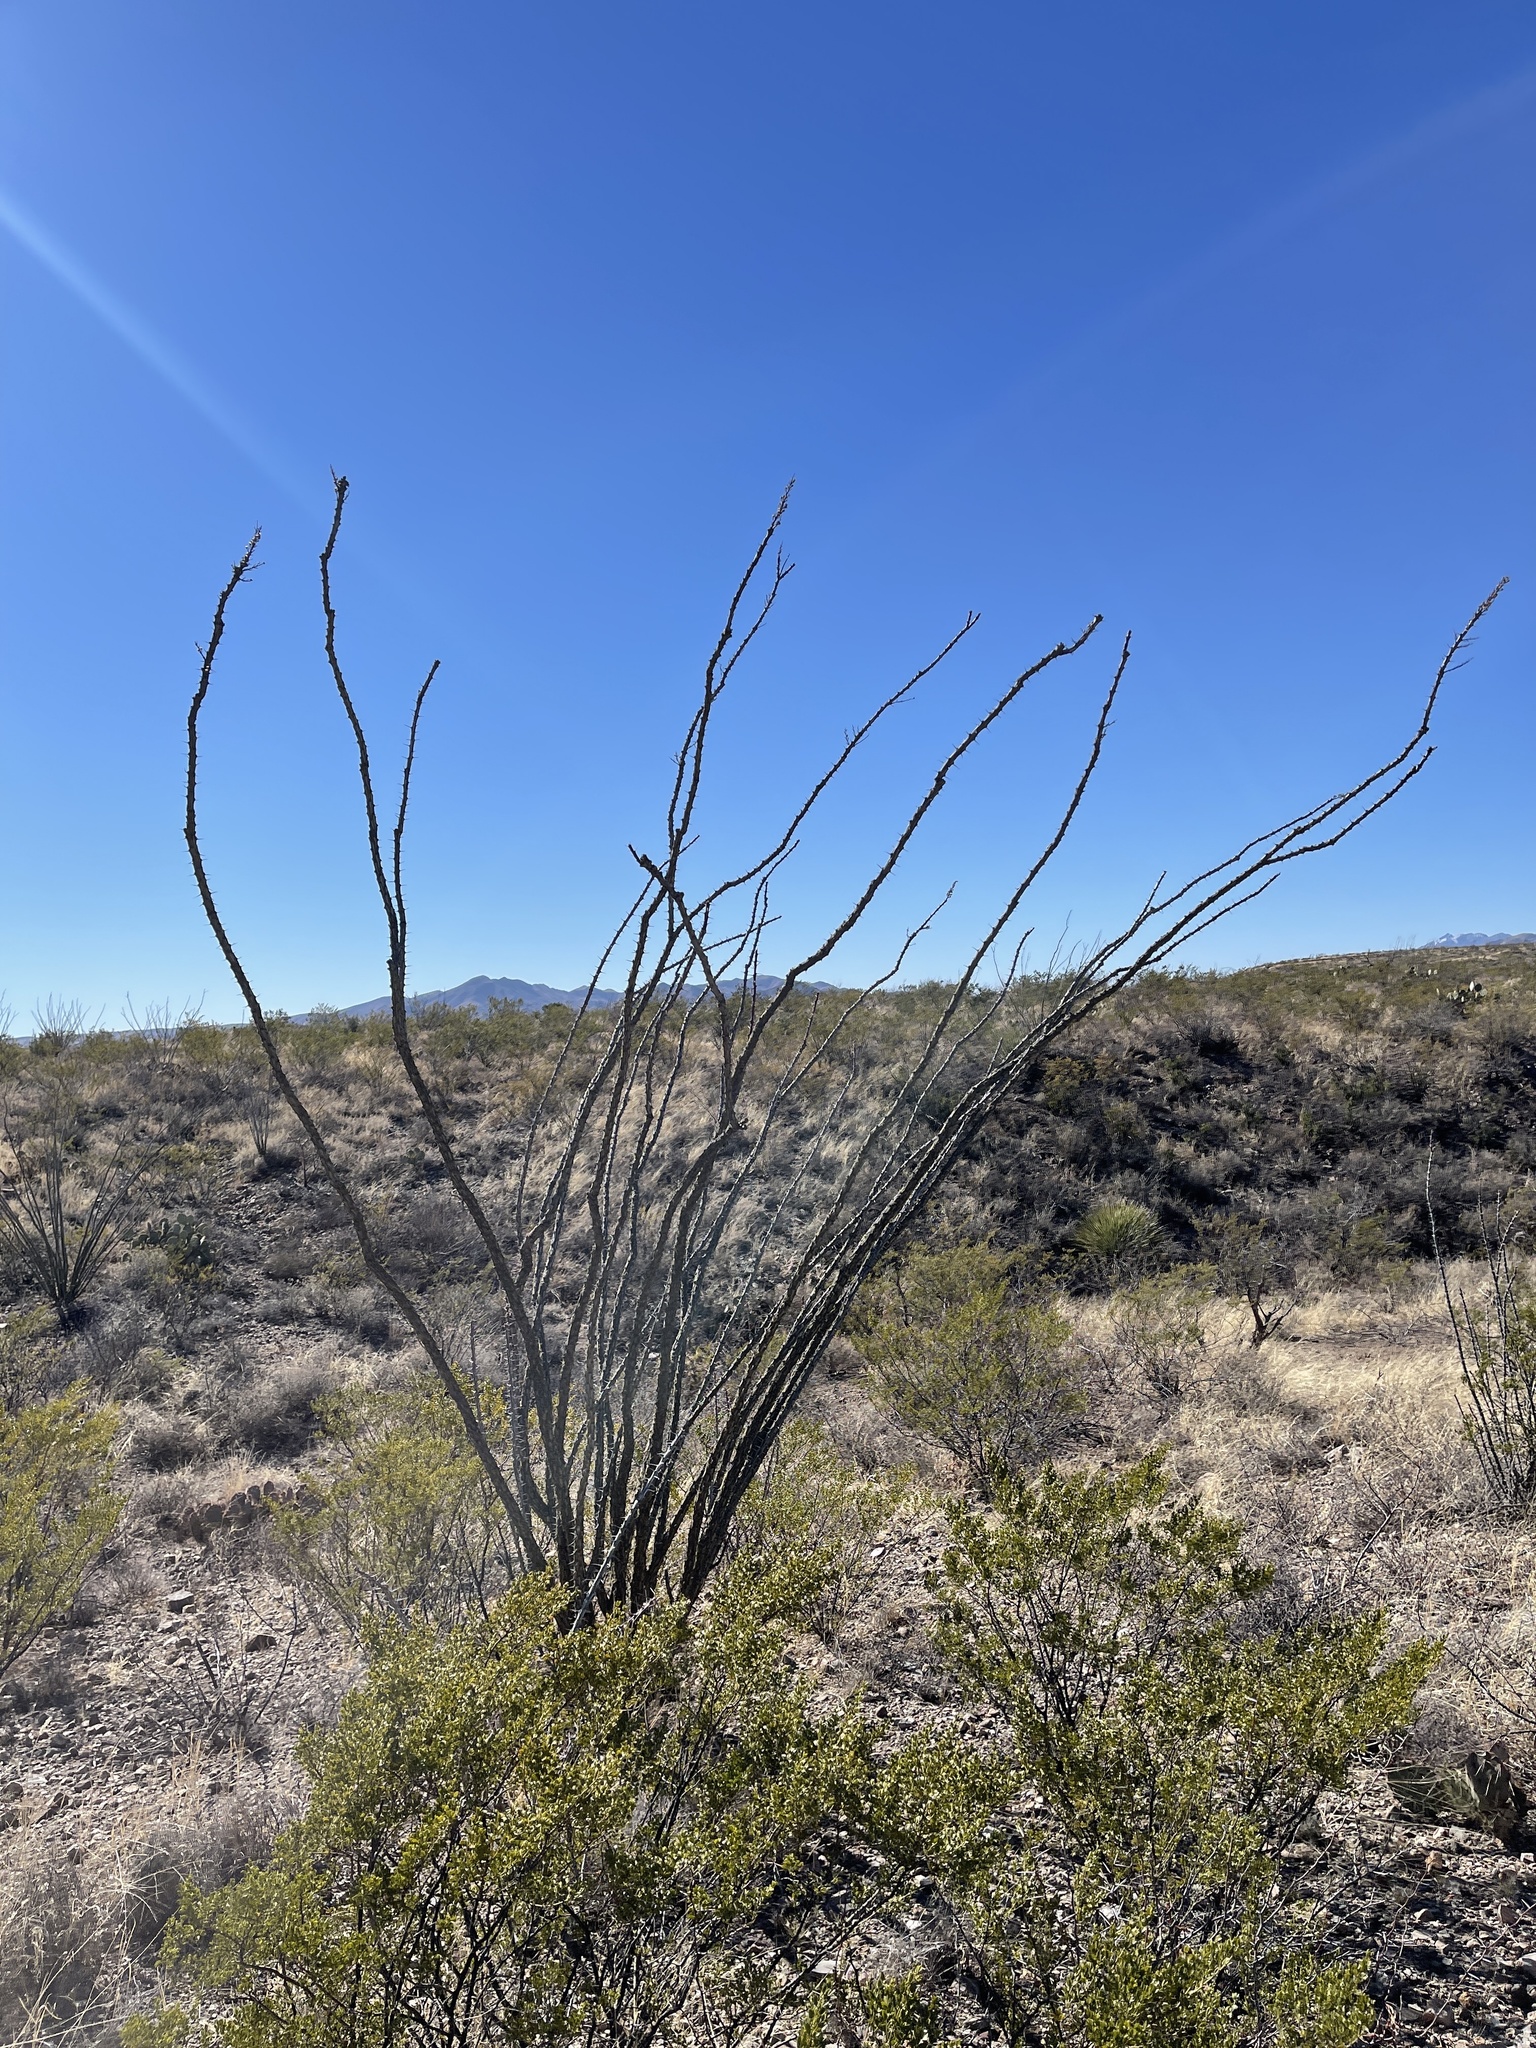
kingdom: Plantae
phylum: Tracheophyta
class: Magnoliopsida
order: Ericales
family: Fouquieriaceae
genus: Fouquieria
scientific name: Fouquieria splendens
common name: Vine-cactus
